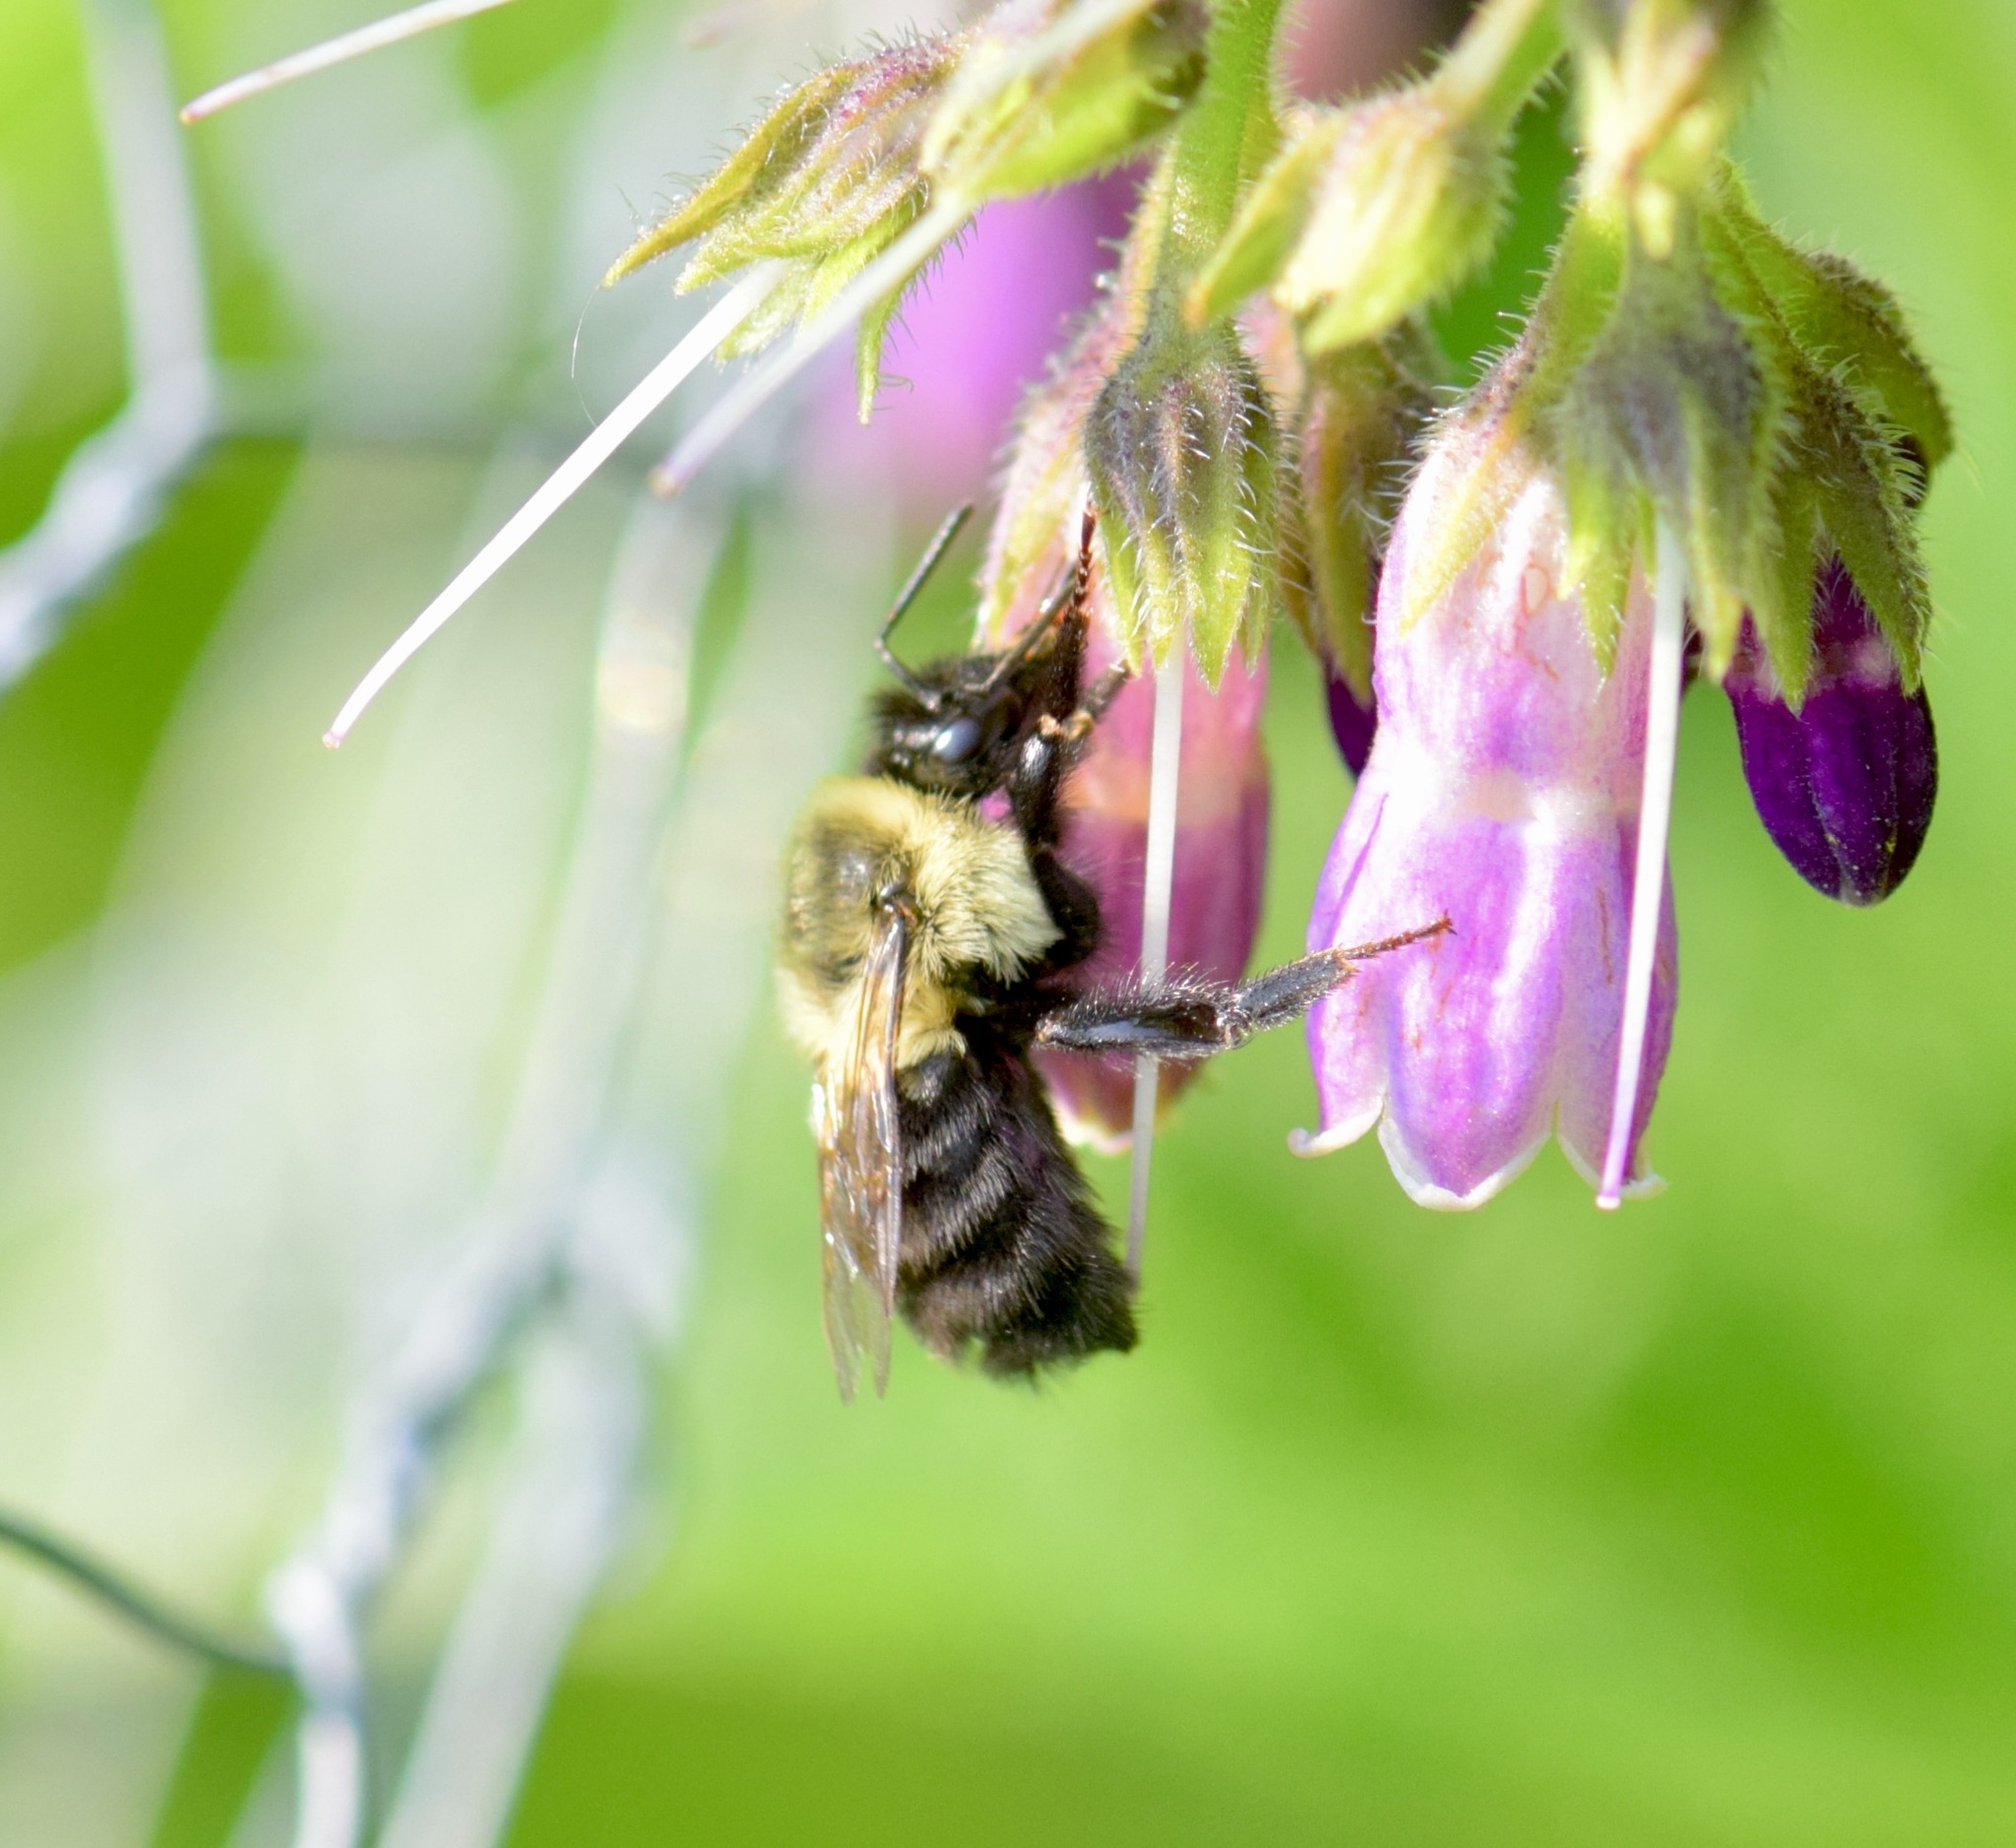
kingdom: Animalia
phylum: Arthropoda
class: Insecta
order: Hymenoptera
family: Apidae
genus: Bombus
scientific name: Bombus impatiens
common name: Common eastern bumble bee
